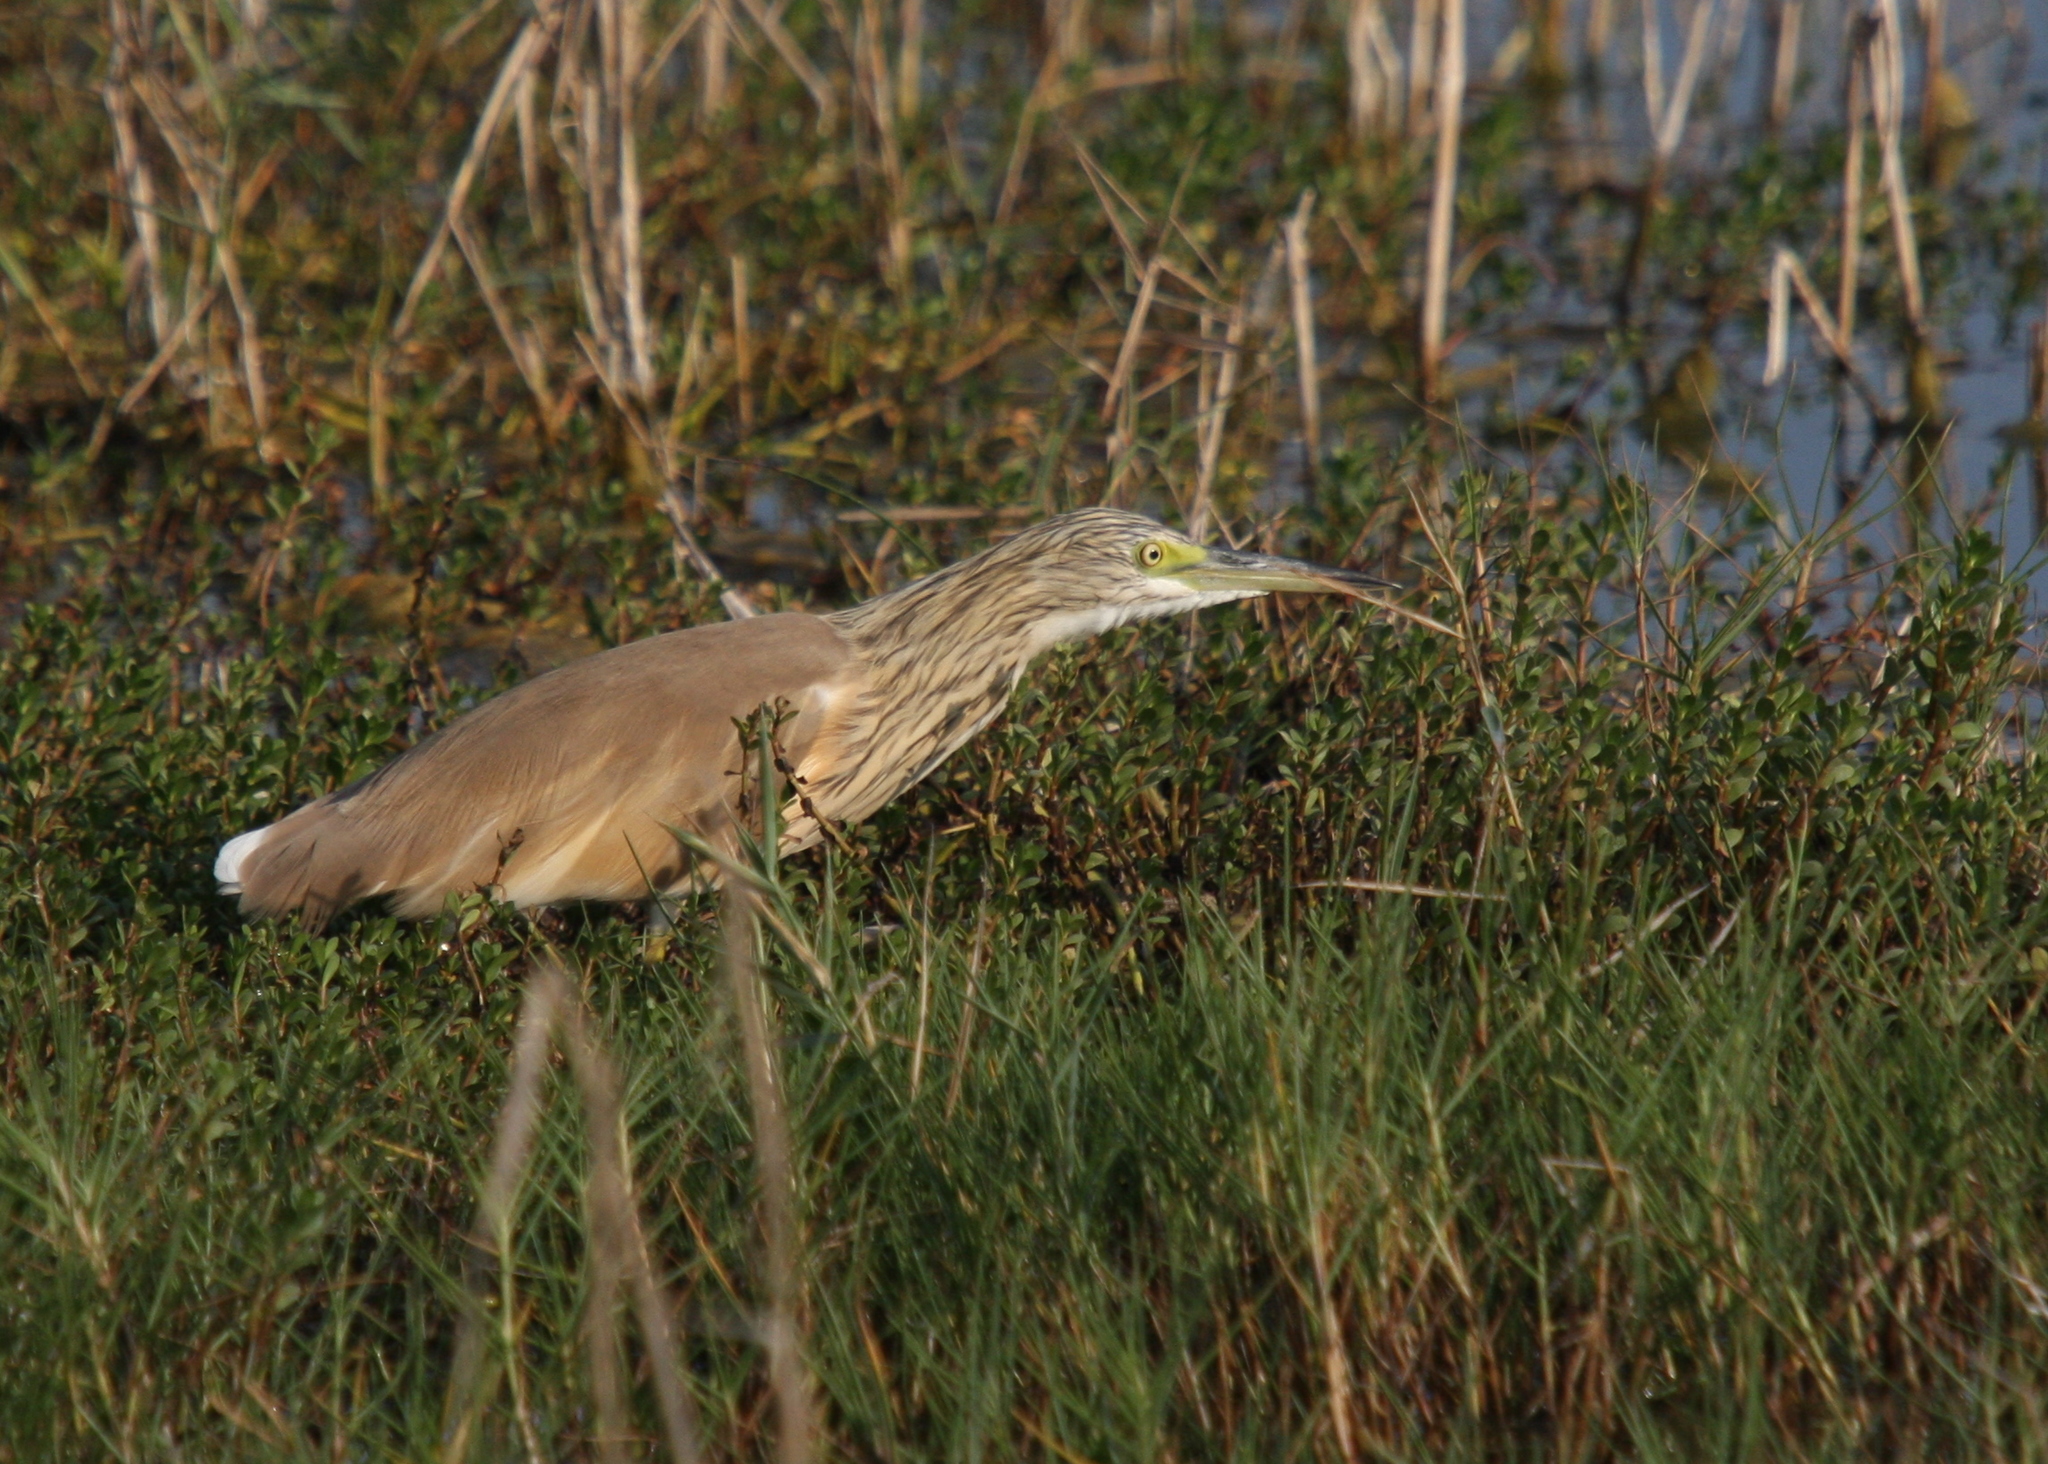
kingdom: Animalia
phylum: Chordata
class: Aves
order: Pelecaniformes
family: Ardeidae
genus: Ardeola
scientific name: Ardeola ralloides
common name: Squacco heron
